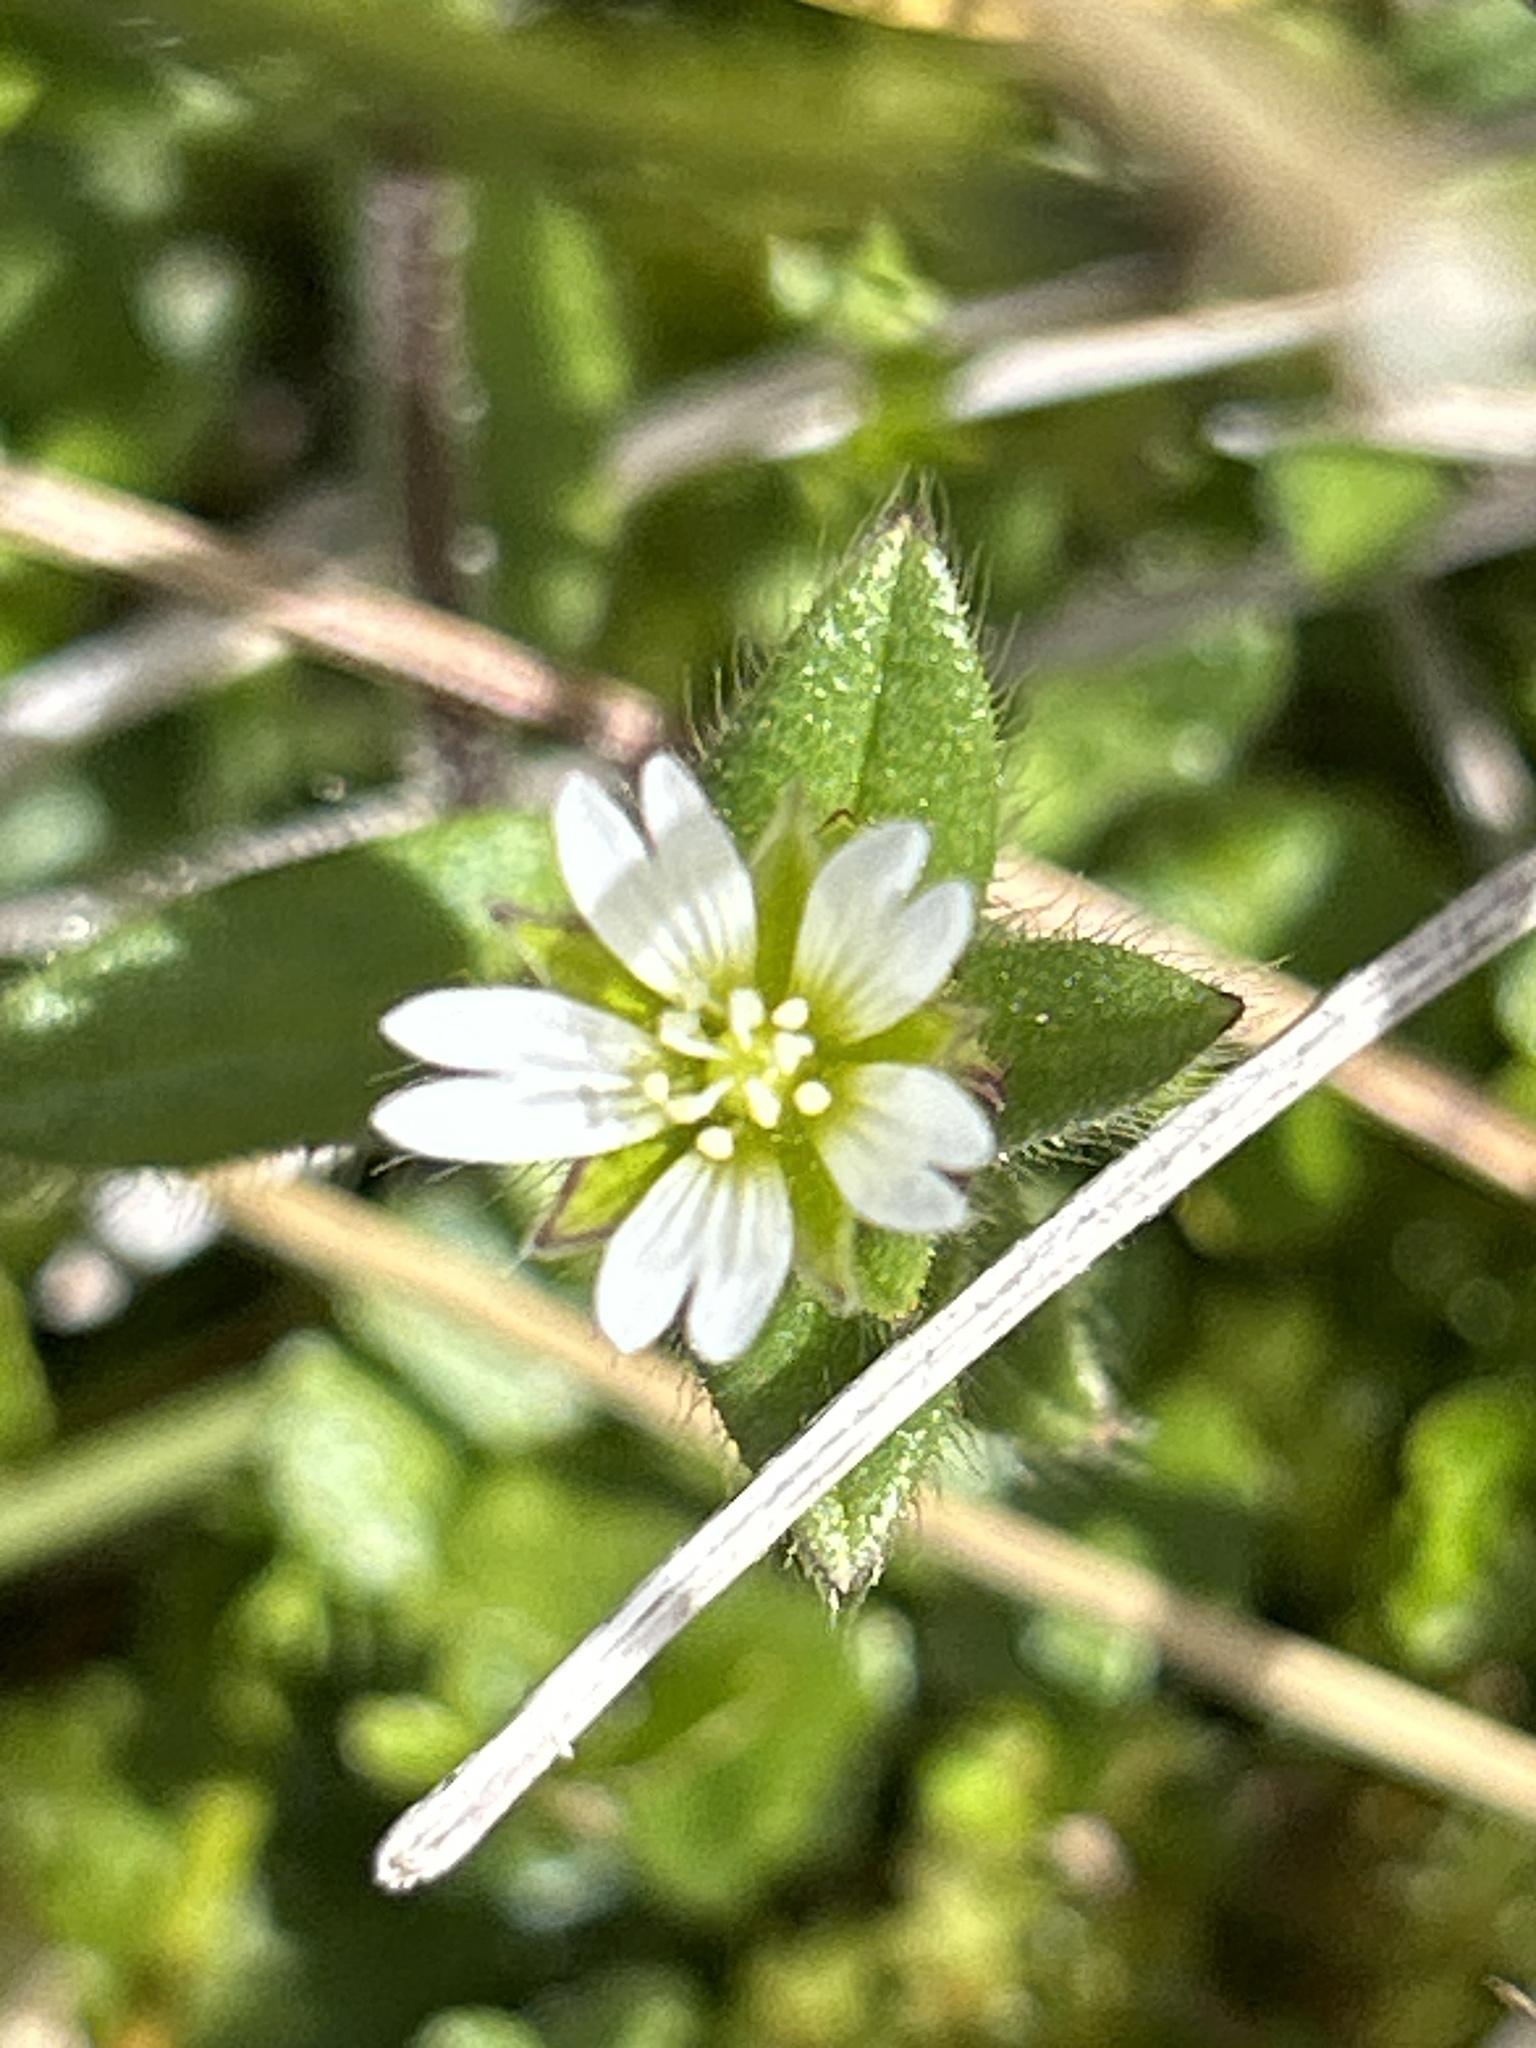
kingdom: Plantae
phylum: Tracheophyta
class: Magnoliopsida
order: Caryophyllales
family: Caryophyllaceae
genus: Cerastium
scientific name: Cerastium fontanum
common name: Common mouse-ear
